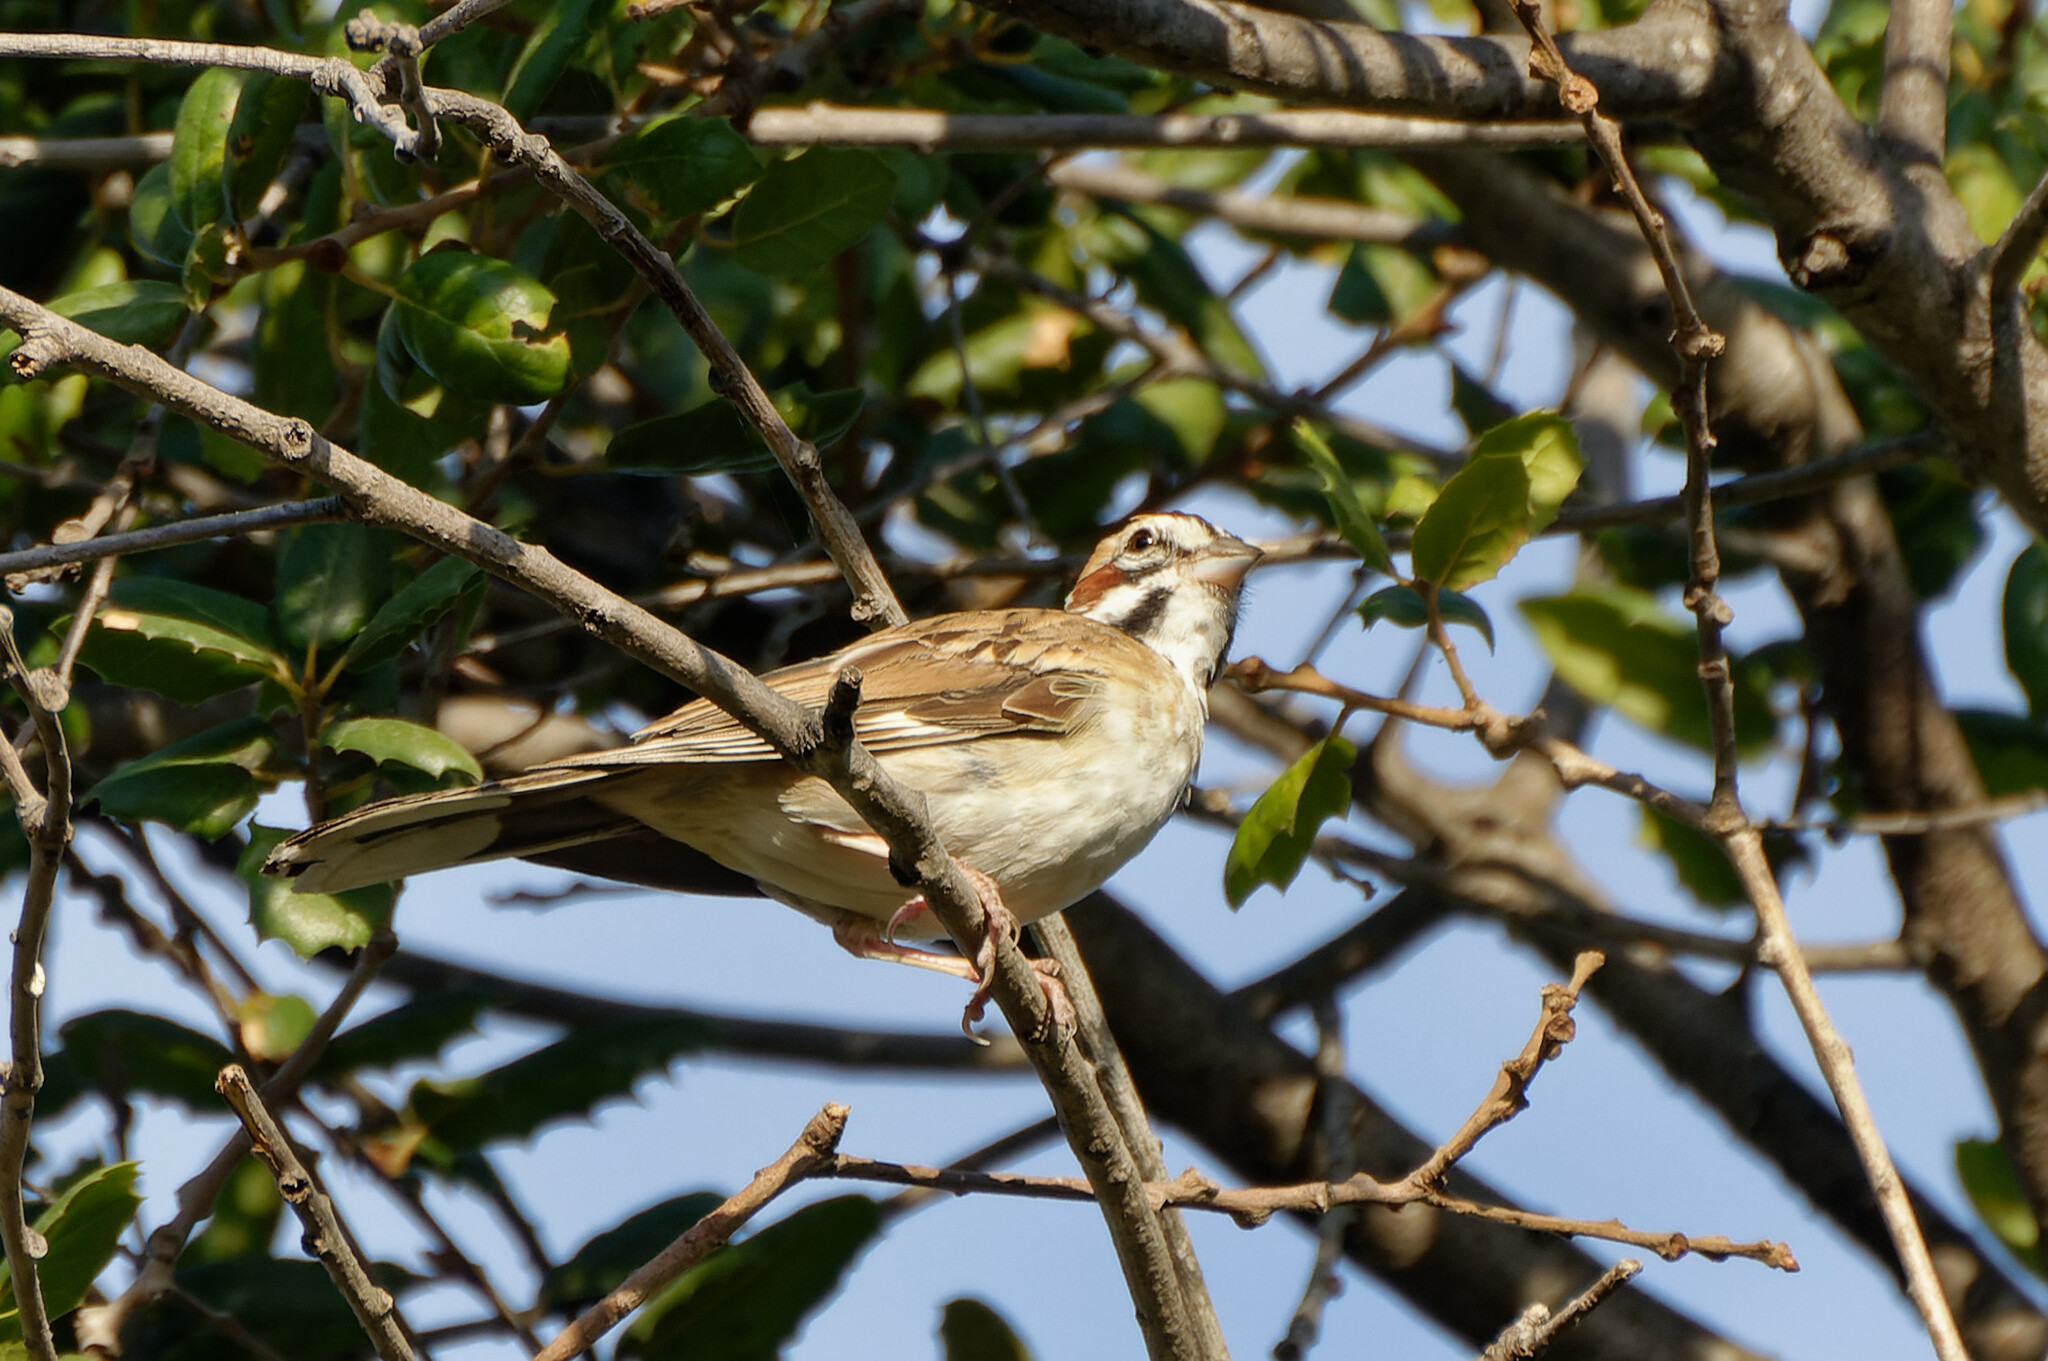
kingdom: Animalia
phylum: Chordata
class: Aves
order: Passeriformes
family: Passerellidae
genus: Chondestes
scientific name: Chondestes grammacus
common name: Lark sparrow
